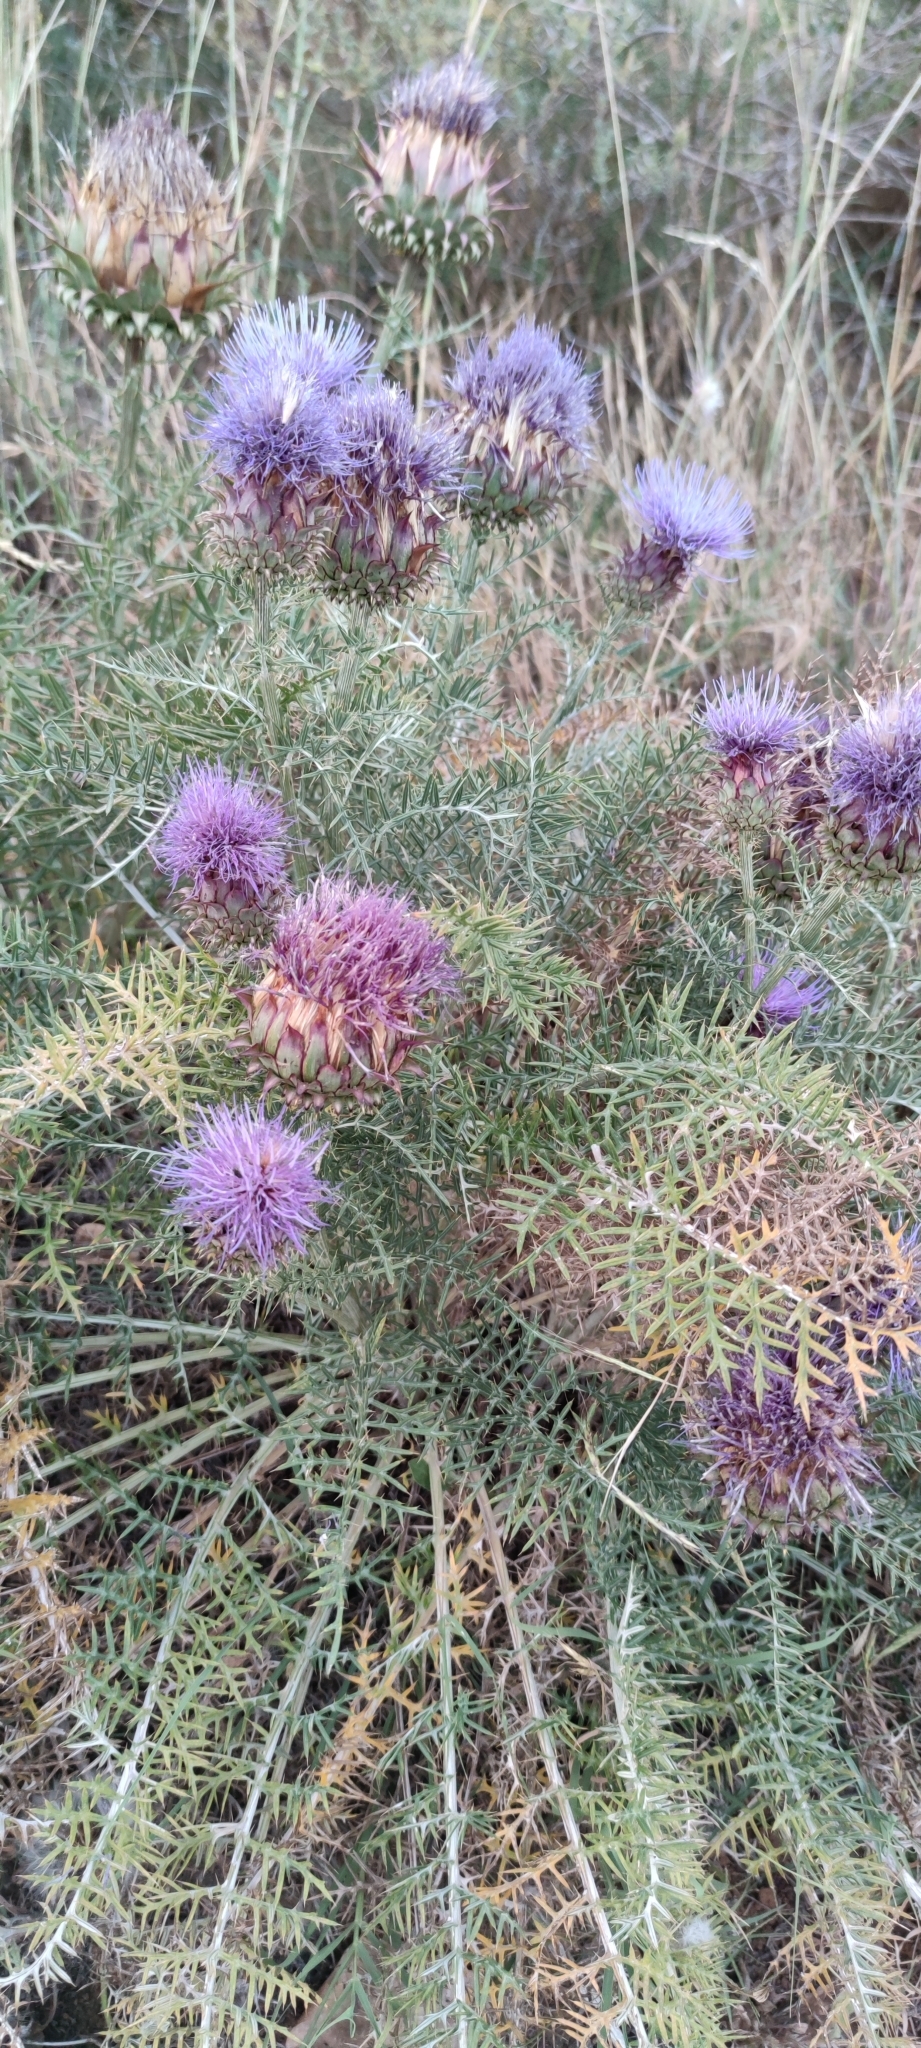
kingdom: Plantae
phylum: Tracheophyta
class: Magnoliopsida
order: Asterales
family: Asteraceae
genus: Cynara
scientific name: Cynara humilis
